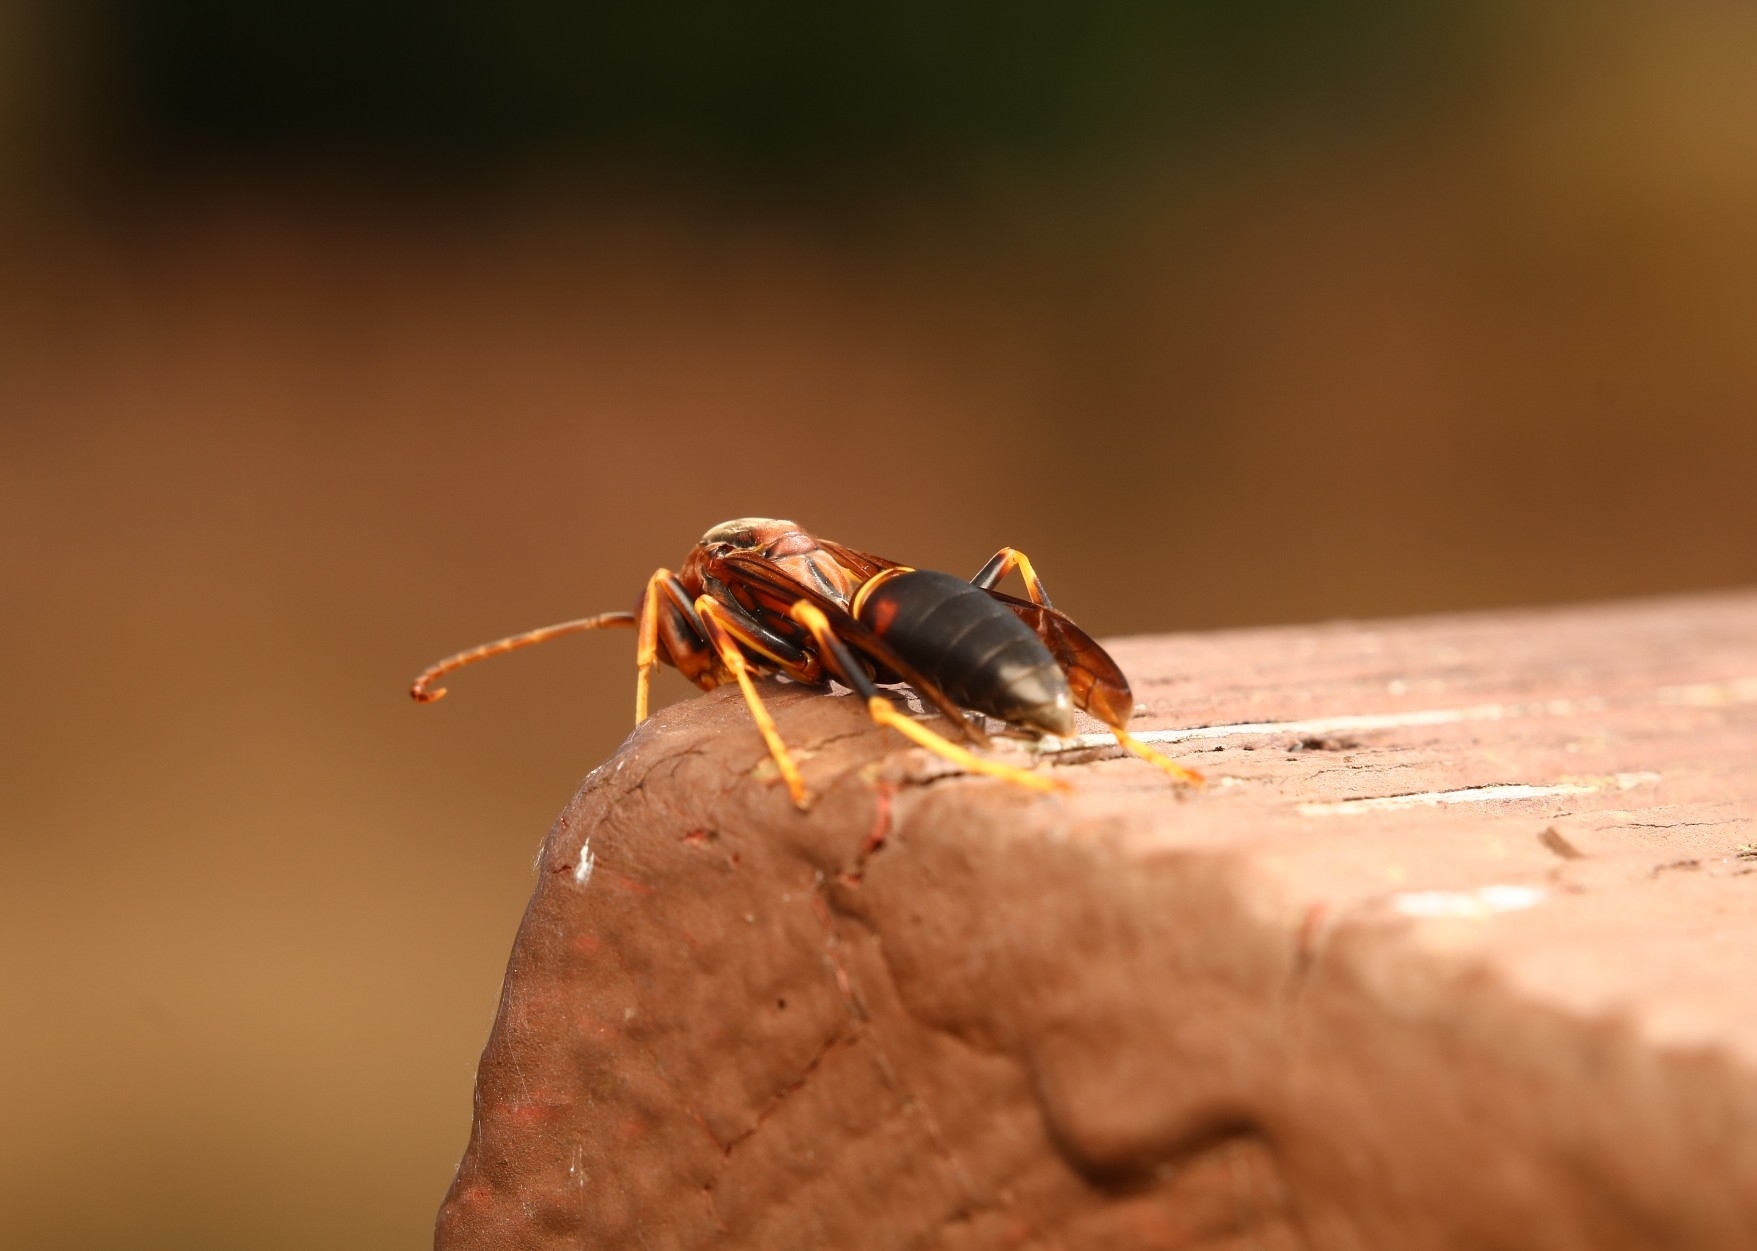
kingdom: Animalia
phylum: Arthropoda
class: Insecta
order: Hymenoptera
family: Eumenidae
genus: Polistes
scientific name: Polistes fuscatus
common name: Dark paper wasp
